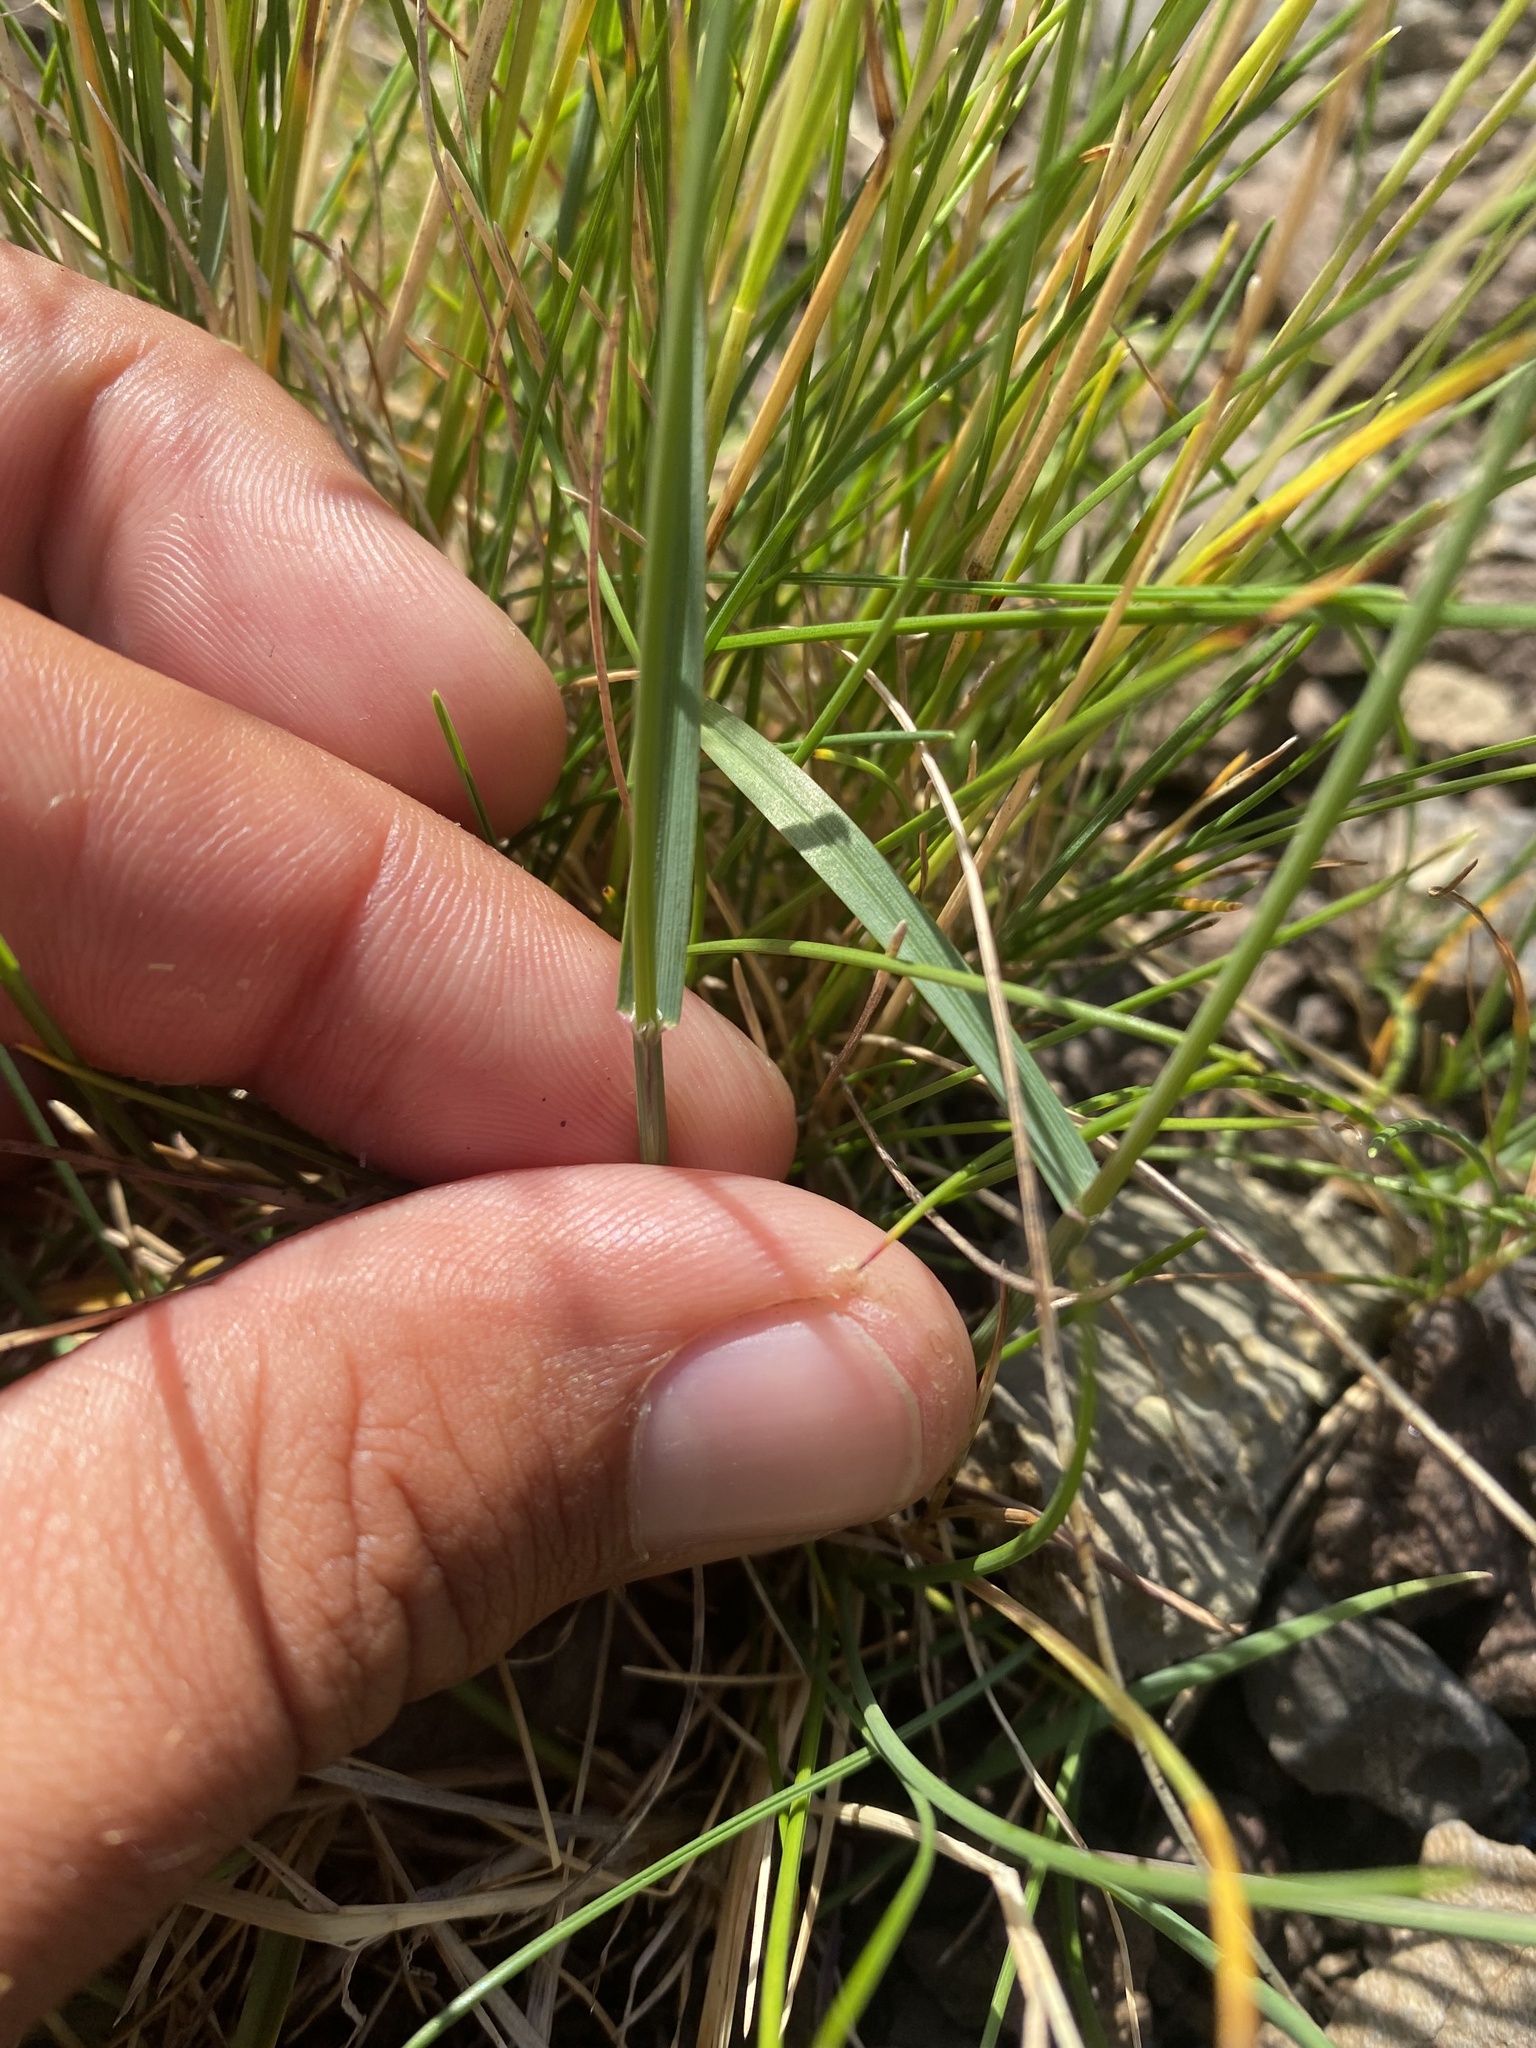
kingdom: Plantae
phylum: Tracheophyta
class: Liliopsida
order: Poales
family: Poaceae
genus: Poa
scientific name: Poa arctica
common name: Arctic bluegrass
